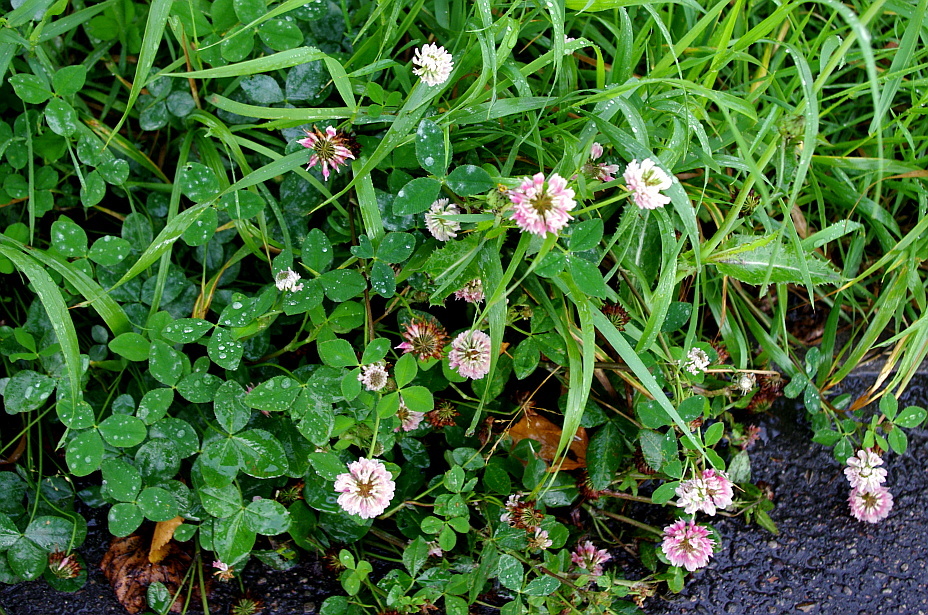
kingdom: Plantae
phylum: Tracheophyta
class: Magnoliopsida
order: Fabales
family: Fabaceae
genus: Trifolium
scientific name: Trifolium hybridum
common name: Alsike clover
